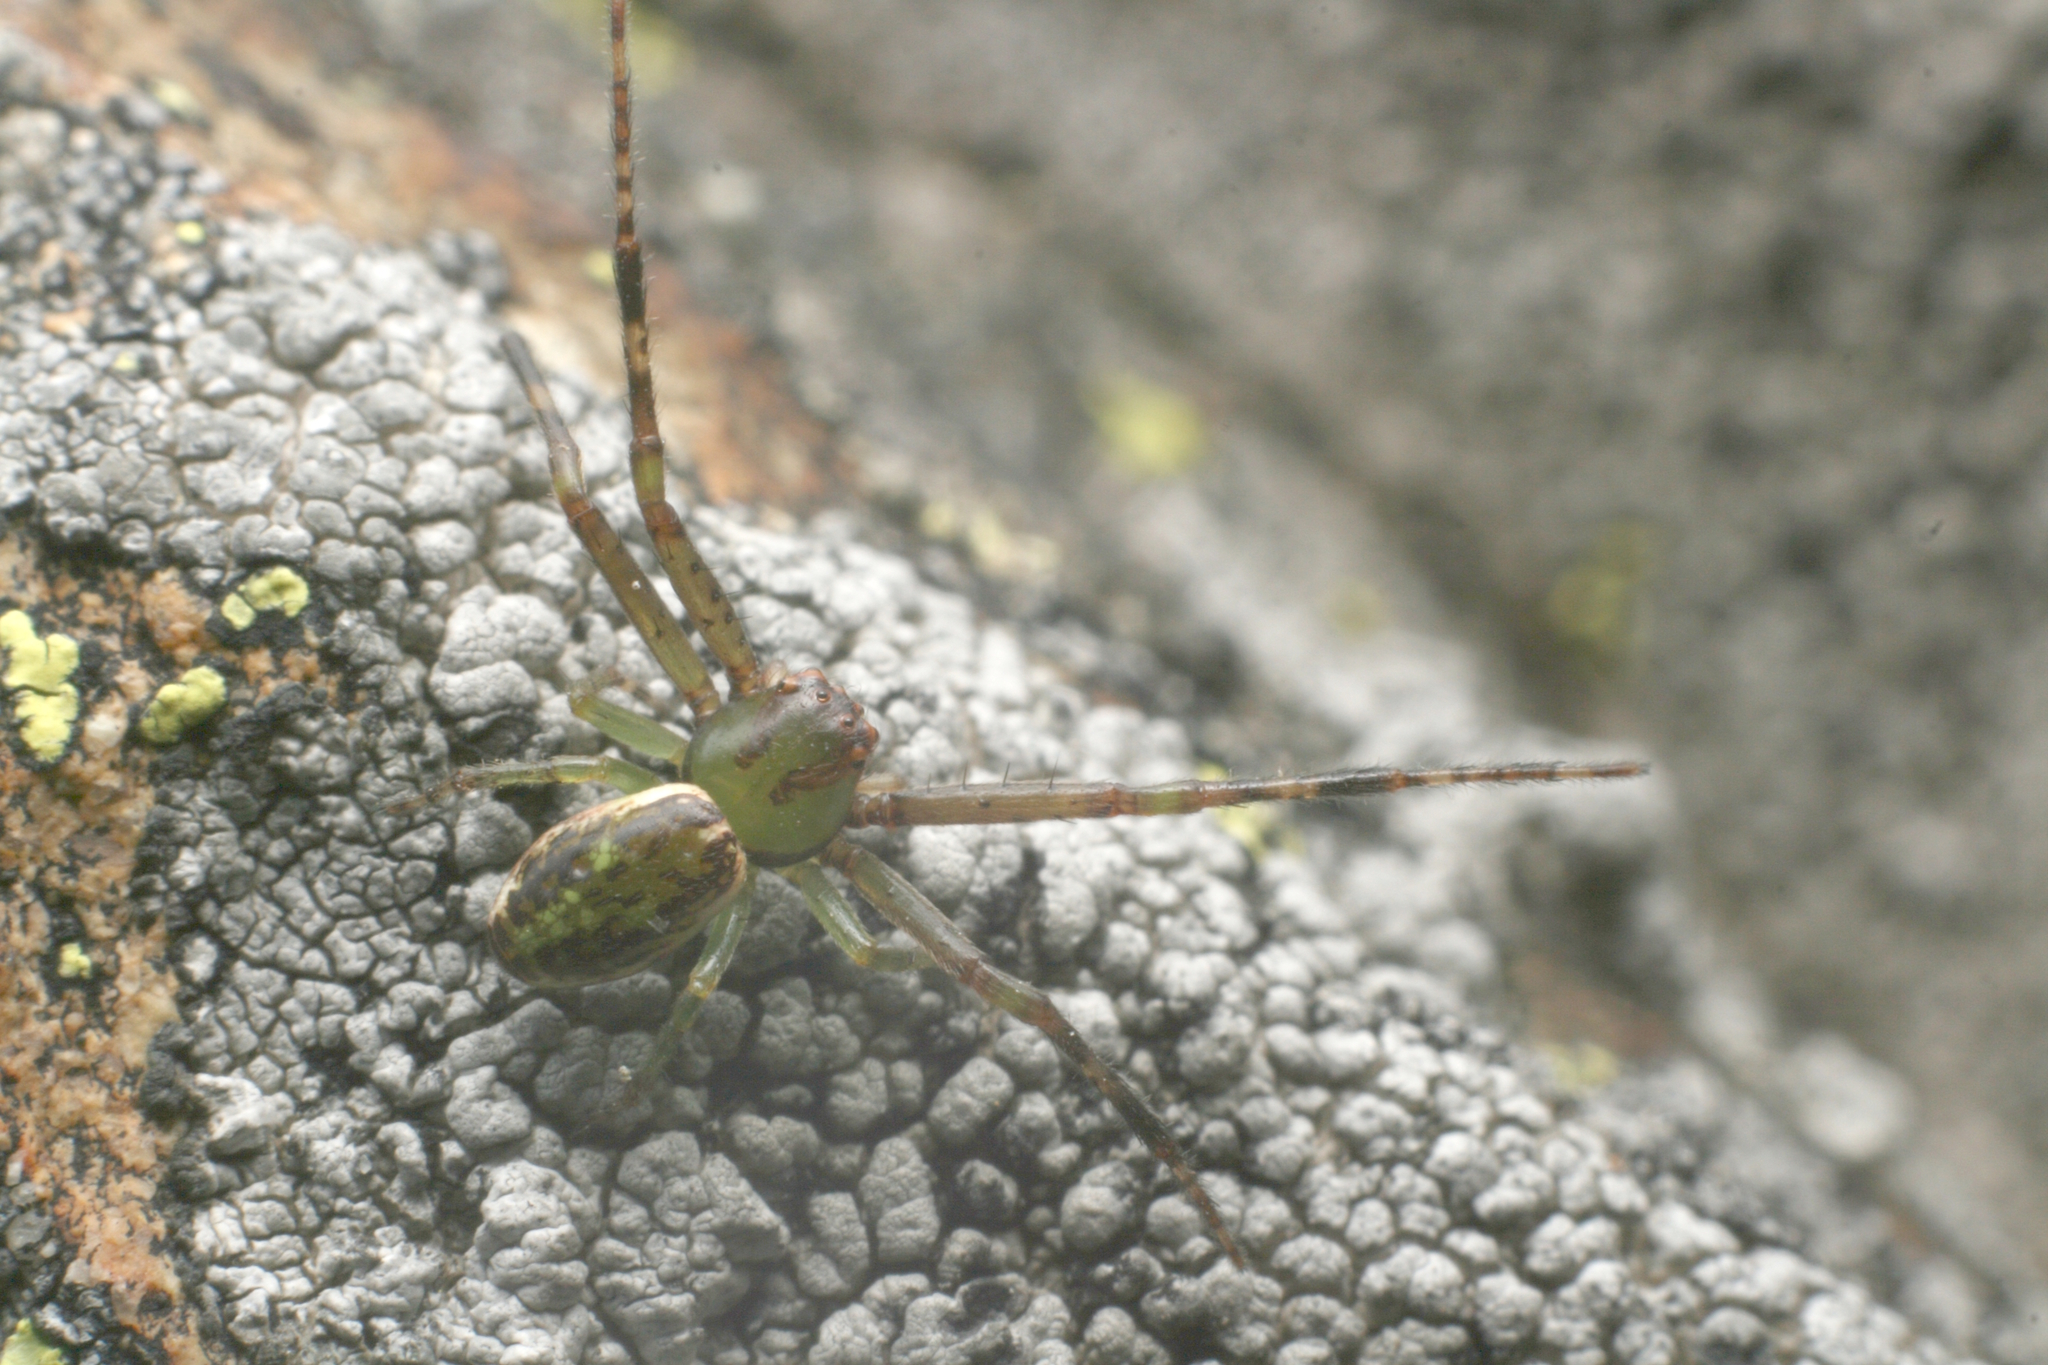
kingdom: Animalia
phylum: Arthropoda
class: Arachnida
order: Araneae
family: Thomisidae
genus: Diaea
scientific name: Diaea ambara
